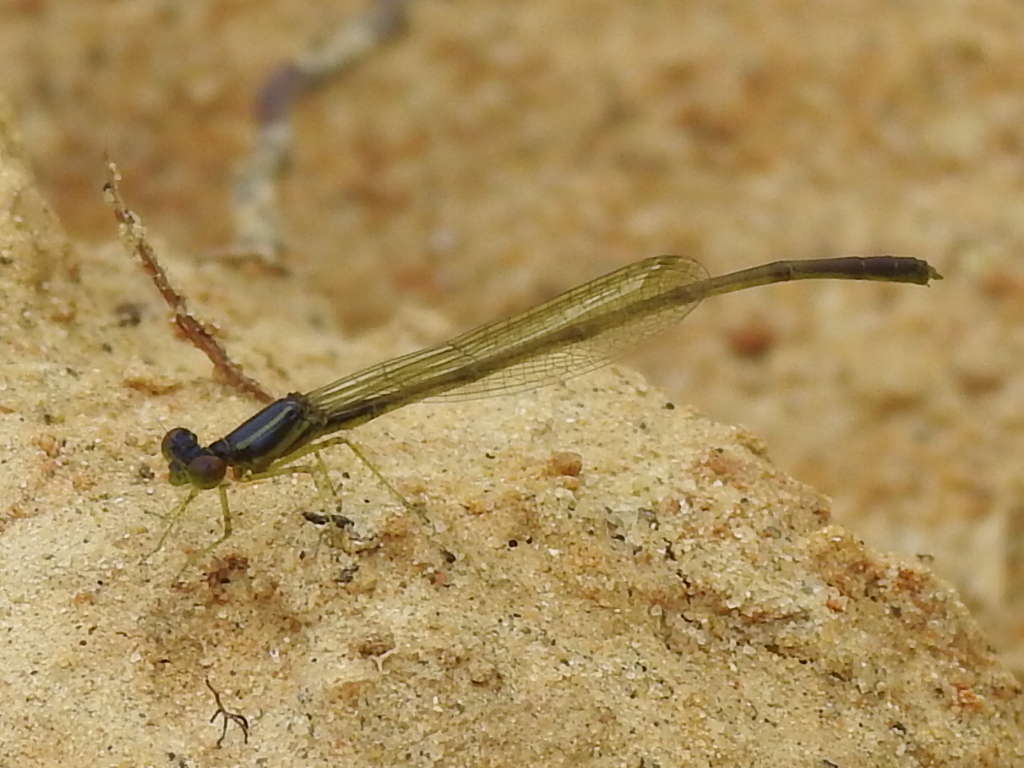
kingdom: Animalia
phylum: Arthropoda
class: Insecta
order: Odonata
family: Coenagrionidae
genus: Enallagma
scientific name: Enallagma dubium
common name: Burgundy bluet
